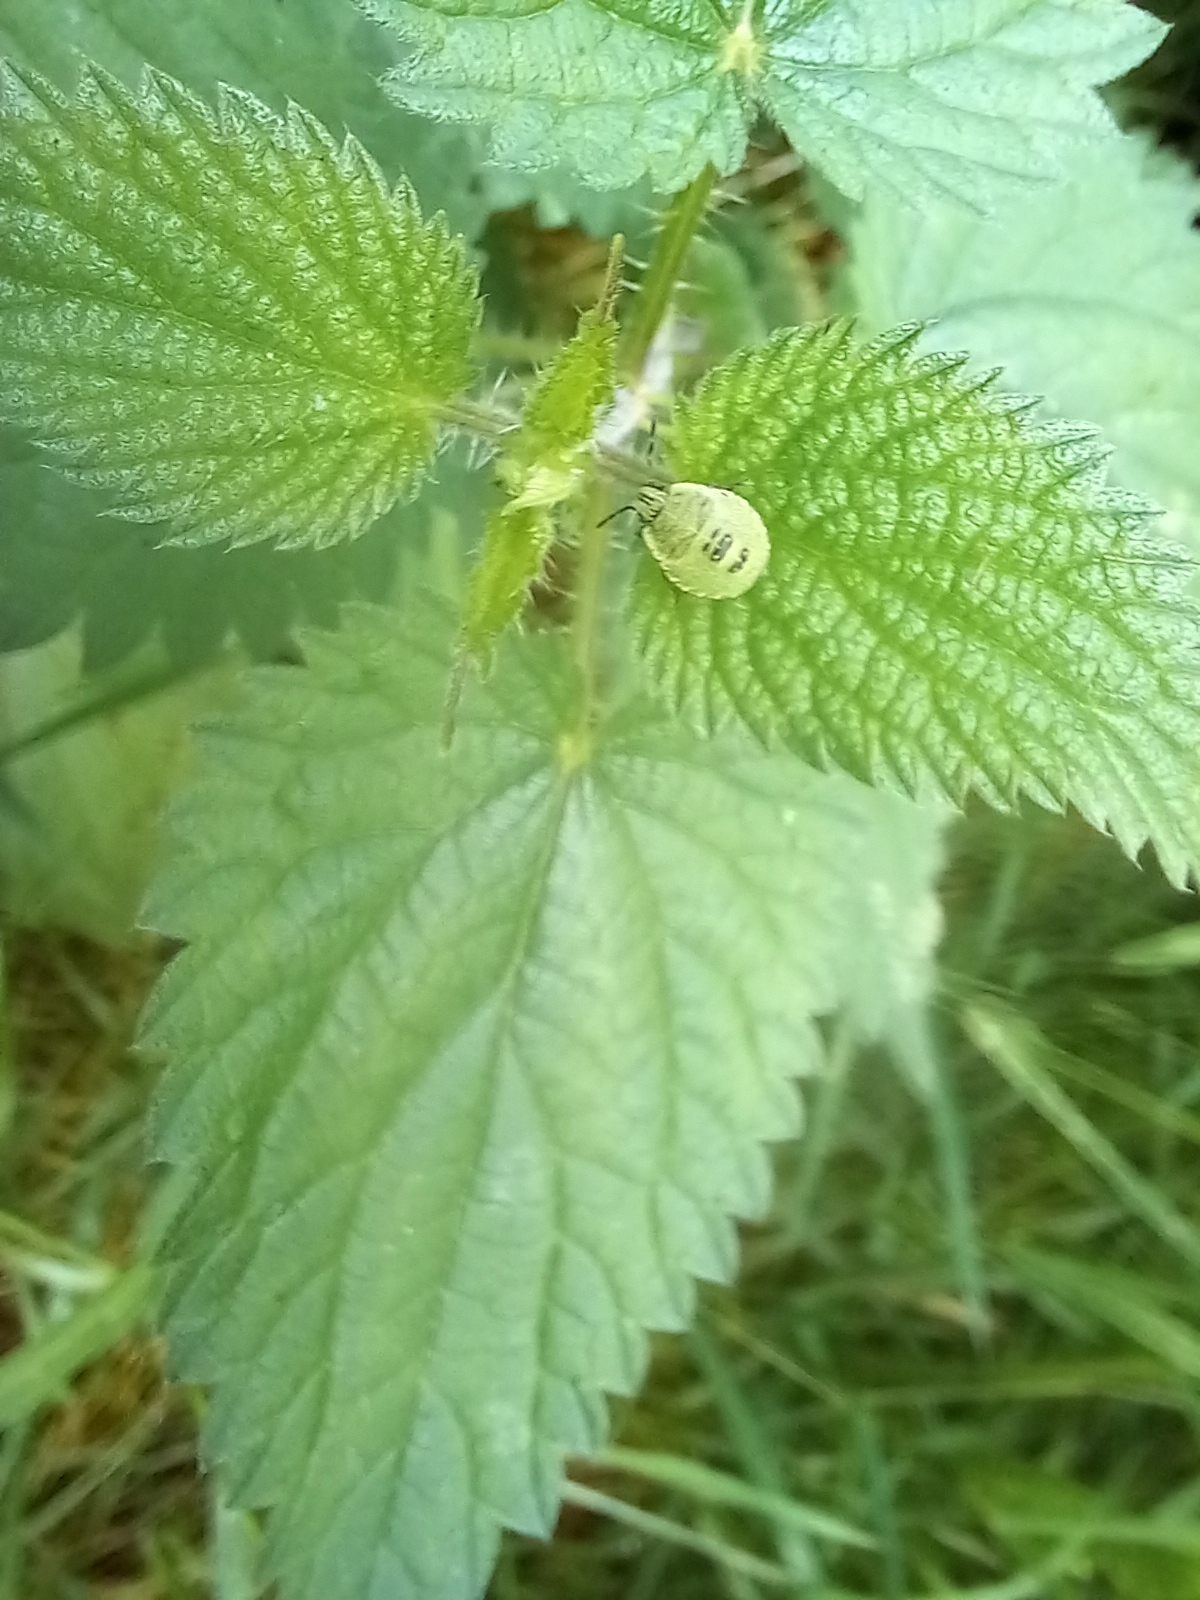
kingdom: Animalia
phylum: Arthropoda
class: Insecta
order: Hemiptera
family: Pentatomidae
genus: Palomena
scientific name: Palomena prasina
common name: Green shieldbug
